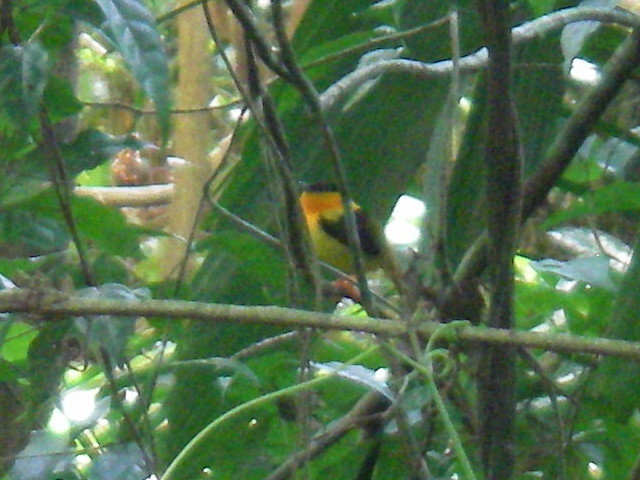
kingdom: Animalia
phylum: Chordata
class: Aves
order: Passeriformes
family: Pipridae
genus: Manacus
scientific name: Manacus aurantiacus
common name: Orange-collared manakin
